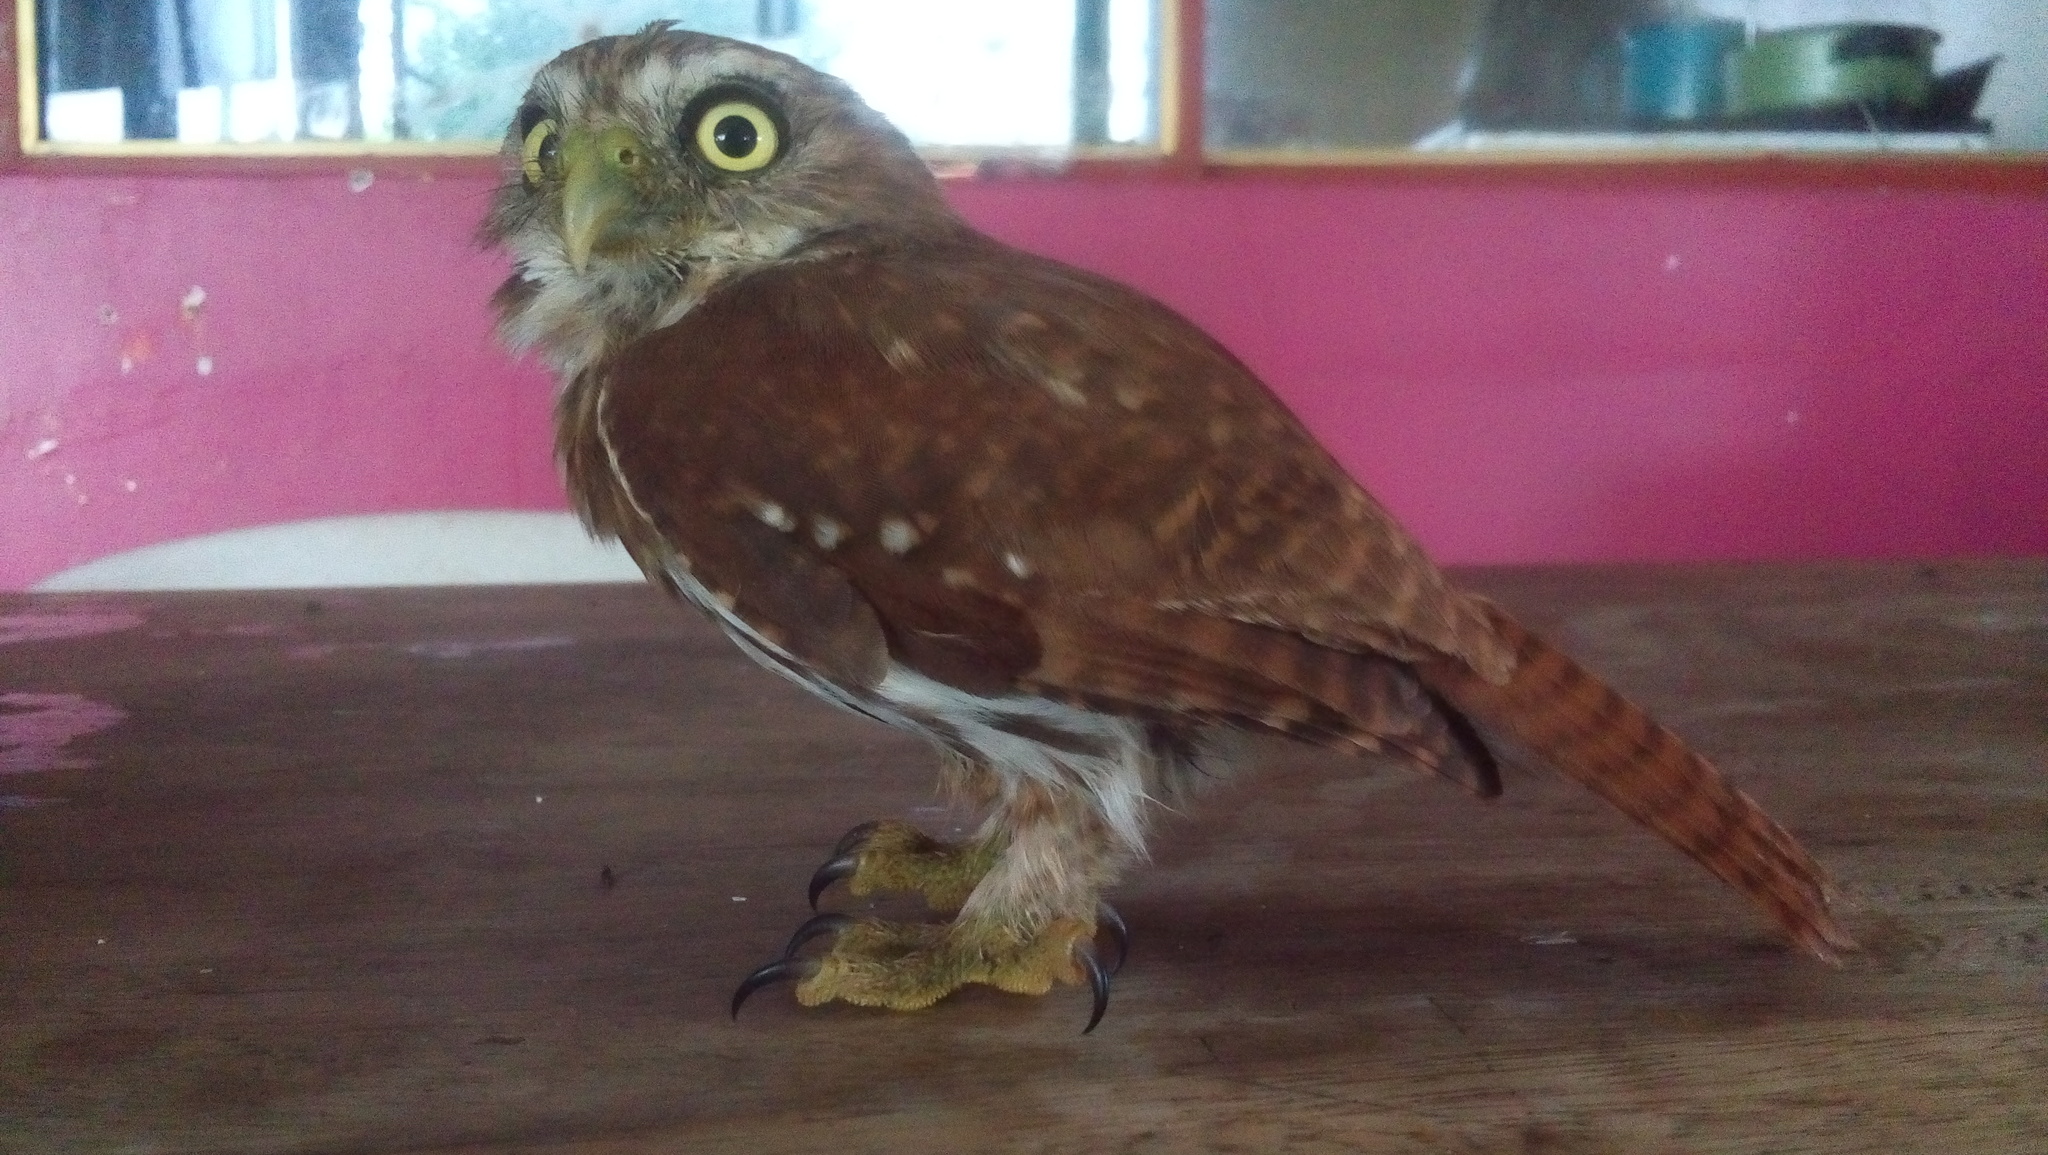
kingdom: Animalia
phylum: Chordata
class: Aves
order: Strigiformes
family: Strigidae
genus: Glaucidium
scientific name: Glaucidium brasilianum
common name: Ferruginous pygmy-owl
